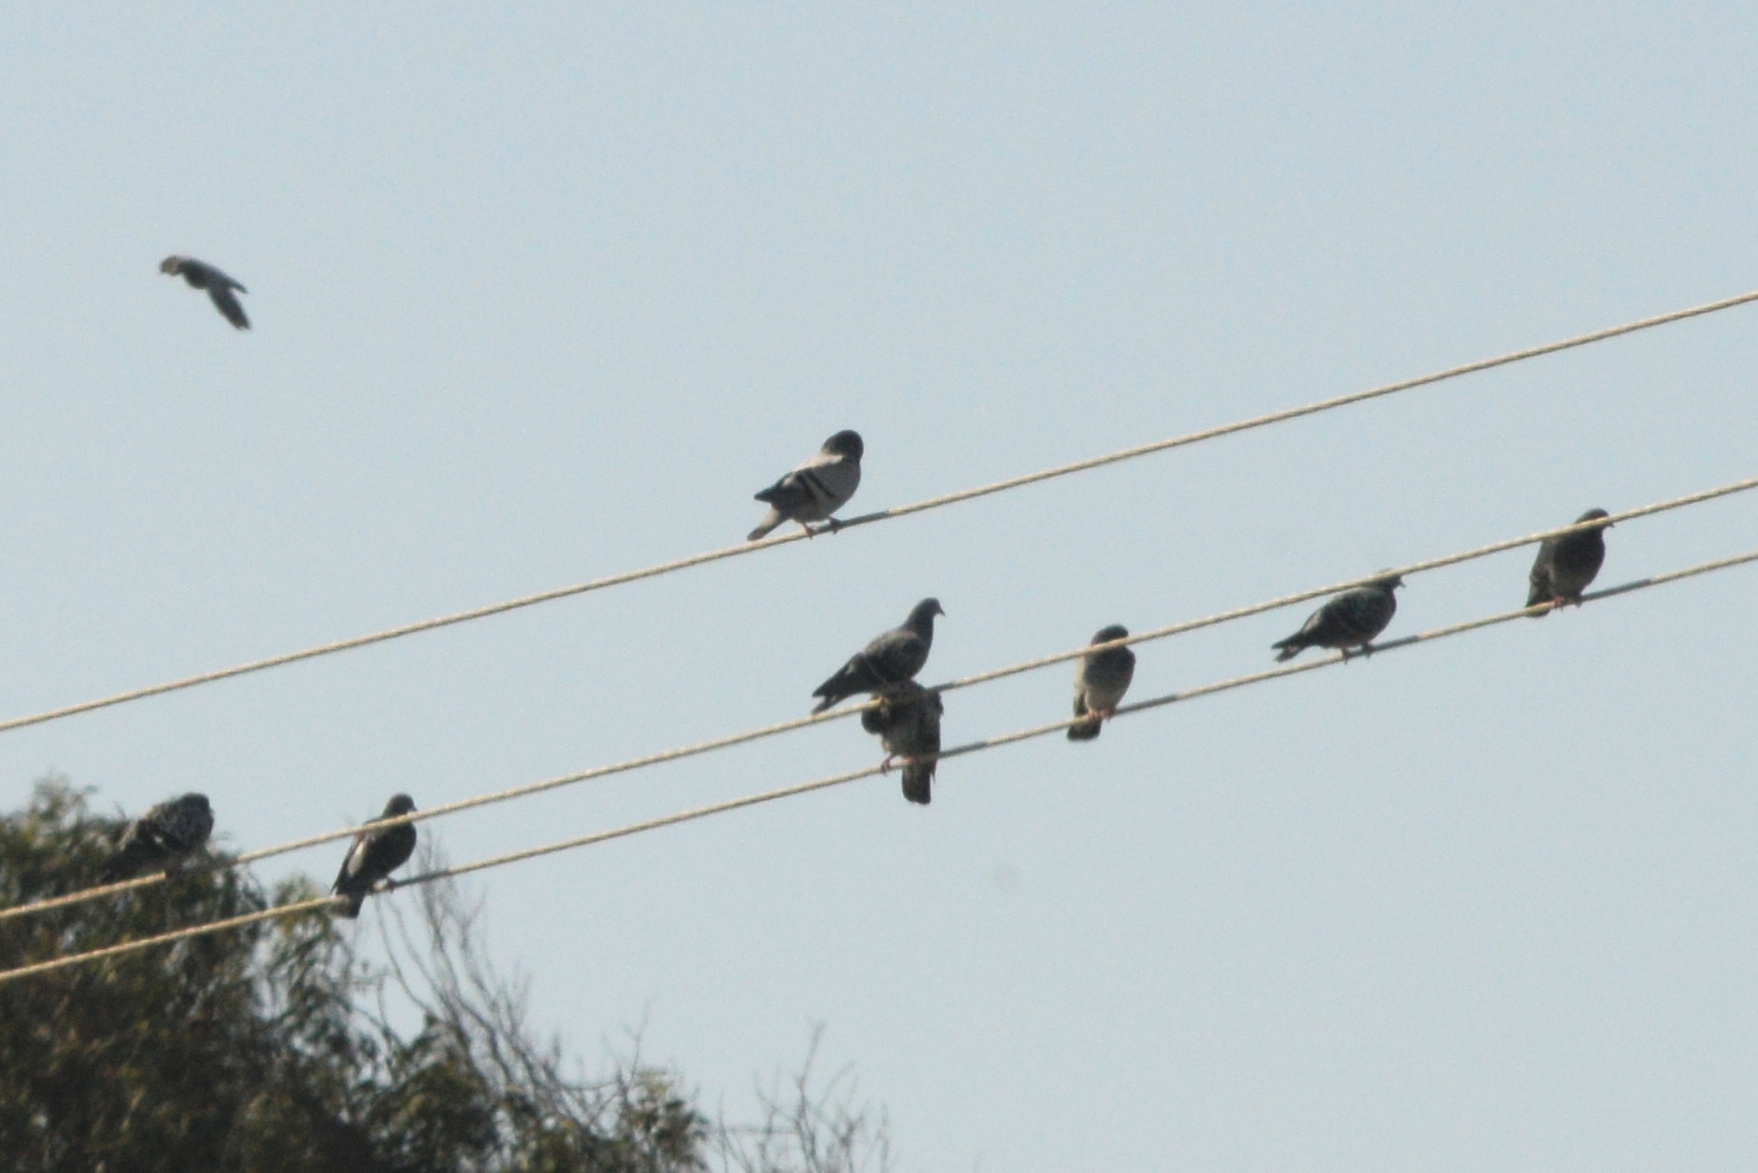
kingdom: Animalia
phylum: Chordata
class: Aves
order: Columbiformes
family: Columbidae
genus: Columba
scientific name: Columba livia
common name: Rock pigeon
